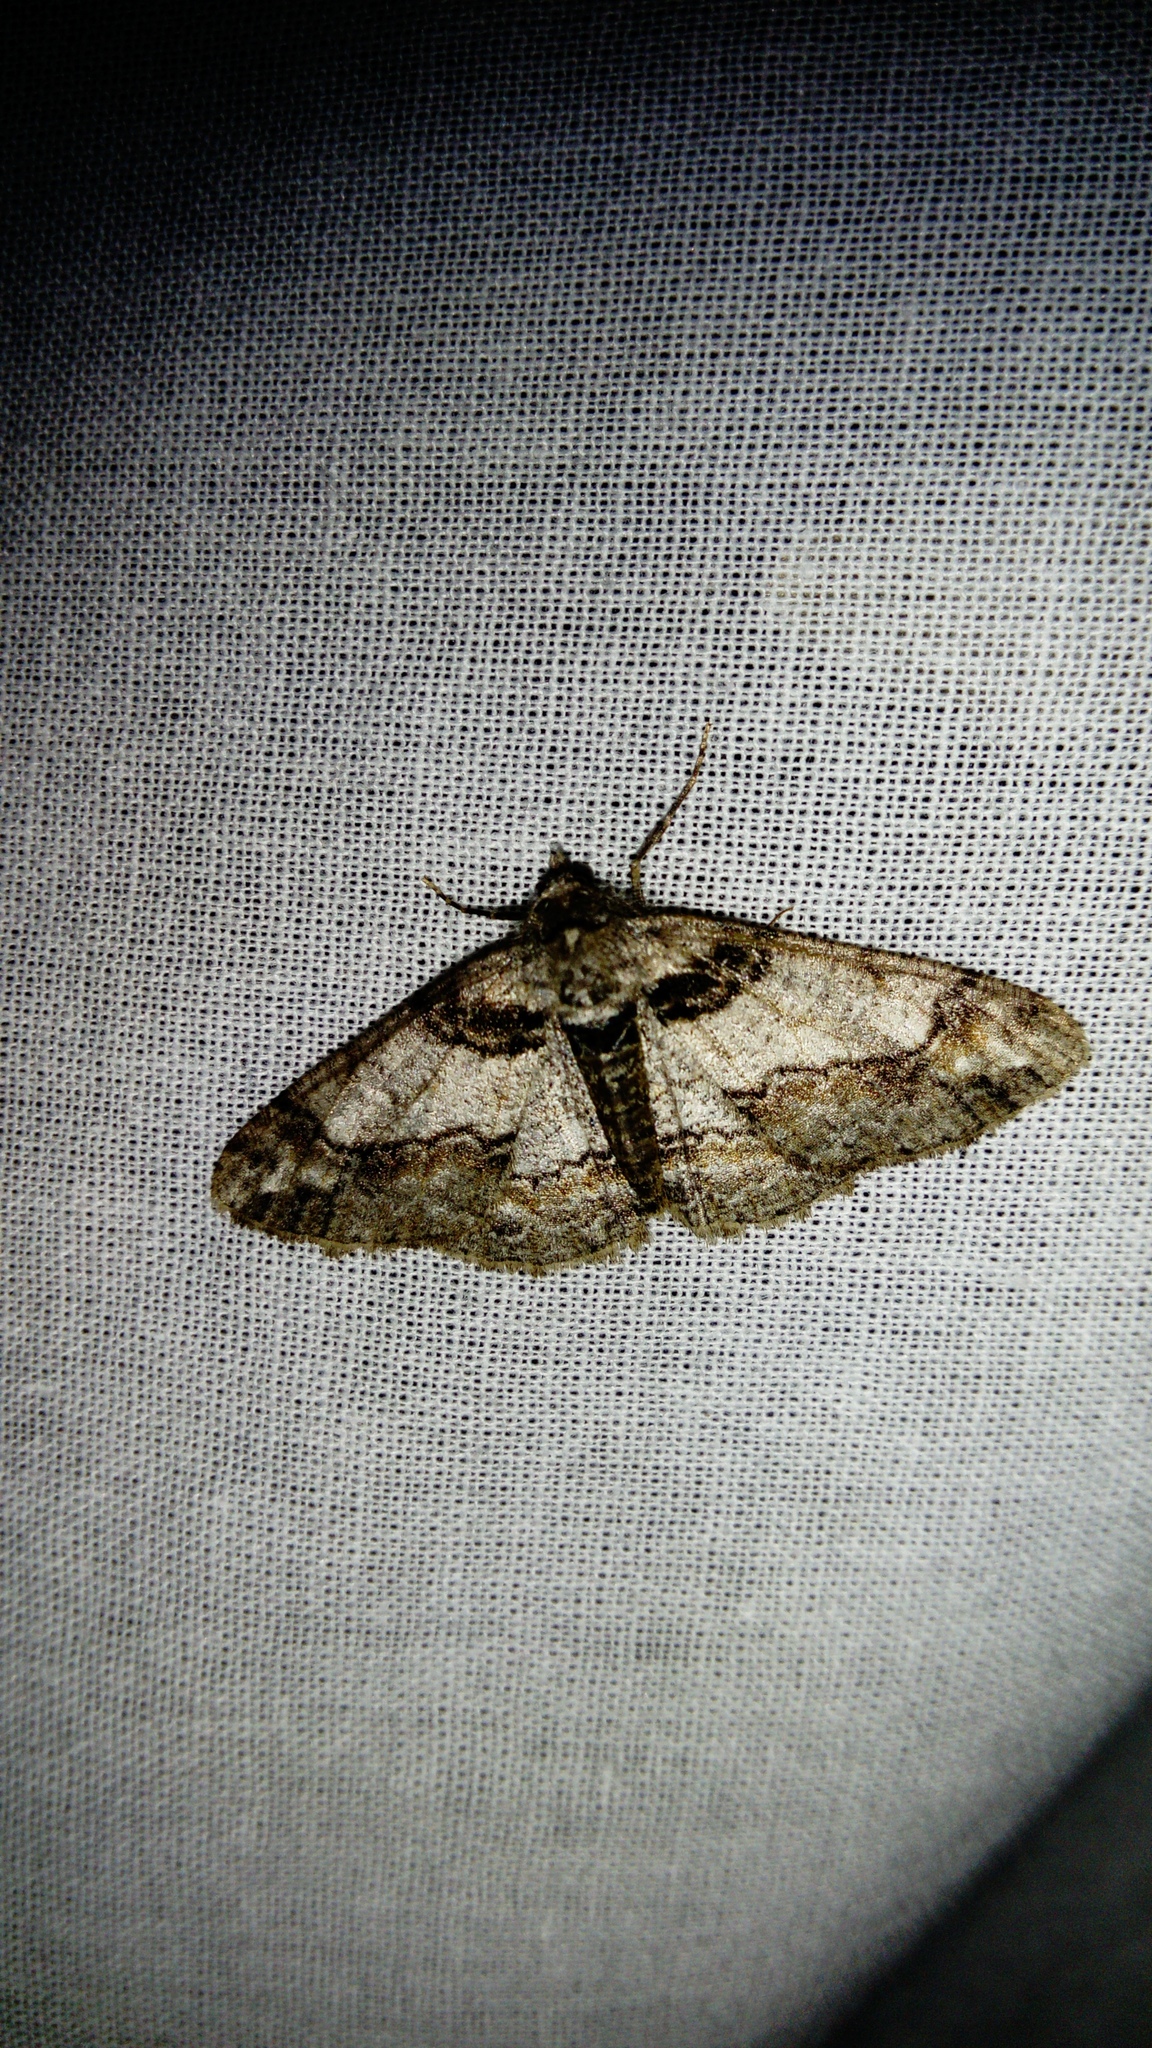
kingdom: Animalia
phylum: Arthropoda
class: Insecta
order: Lepidoptera
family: Geometridae
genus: Cleora
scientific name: Cleora cinctaria
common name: Ringed carpet
